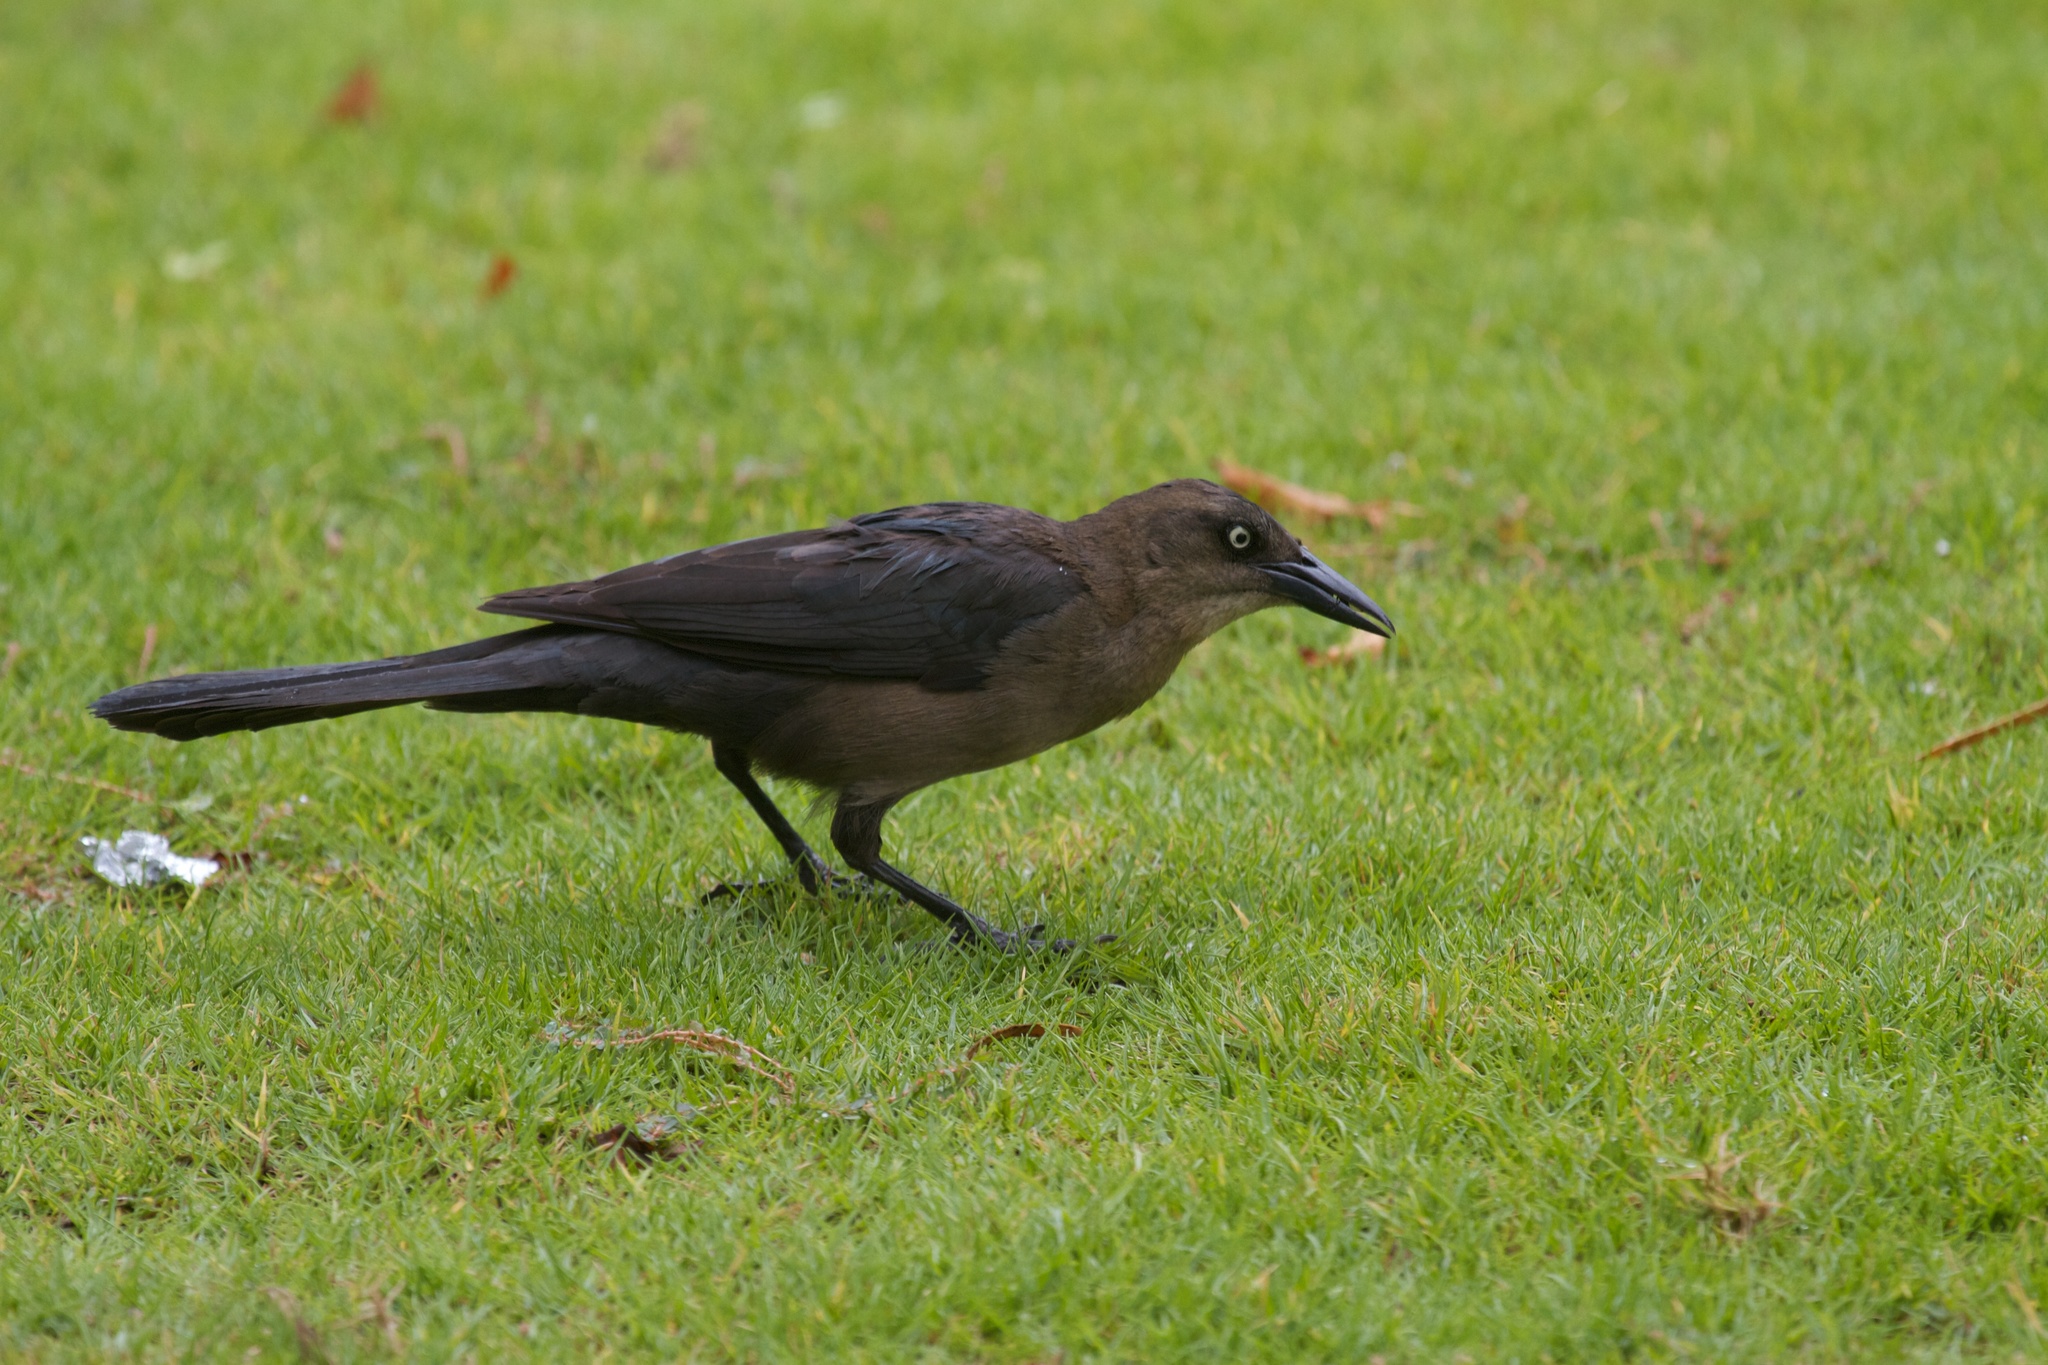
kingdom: Animalia
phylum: Chordata
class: Aves
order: Passeriformes
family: Icteridae
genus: Quiscalus
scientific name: Quiscalus mexicanus
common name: Great-tailed grackle
